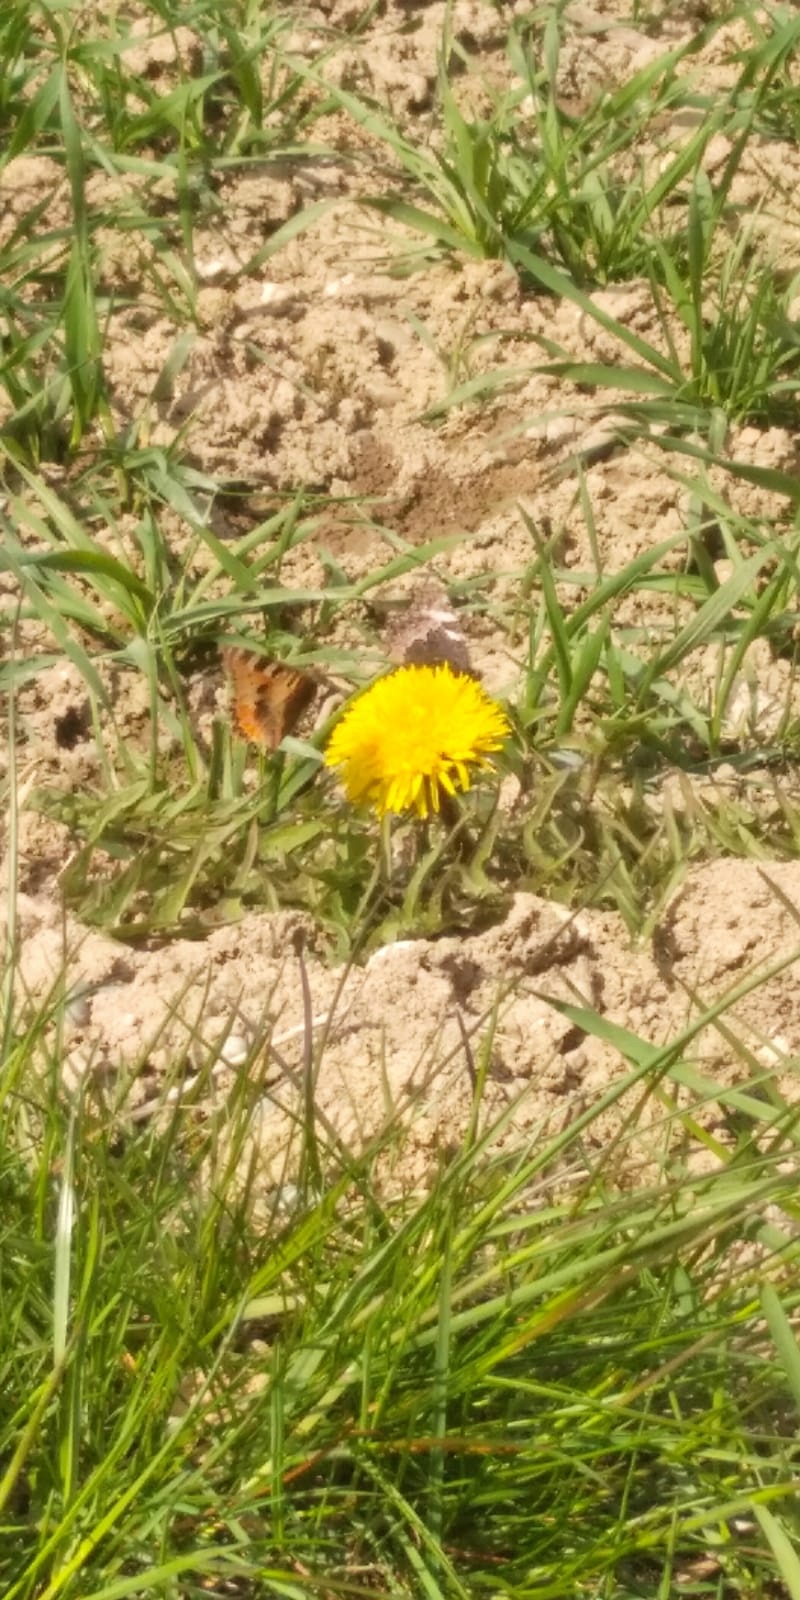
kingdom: Animalia
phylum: Arthropoda
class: Insecta
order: Lepidoptera
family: Nymphalidae
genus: Aglais
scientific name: Aglais urticae
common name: Small tortoiseshell
